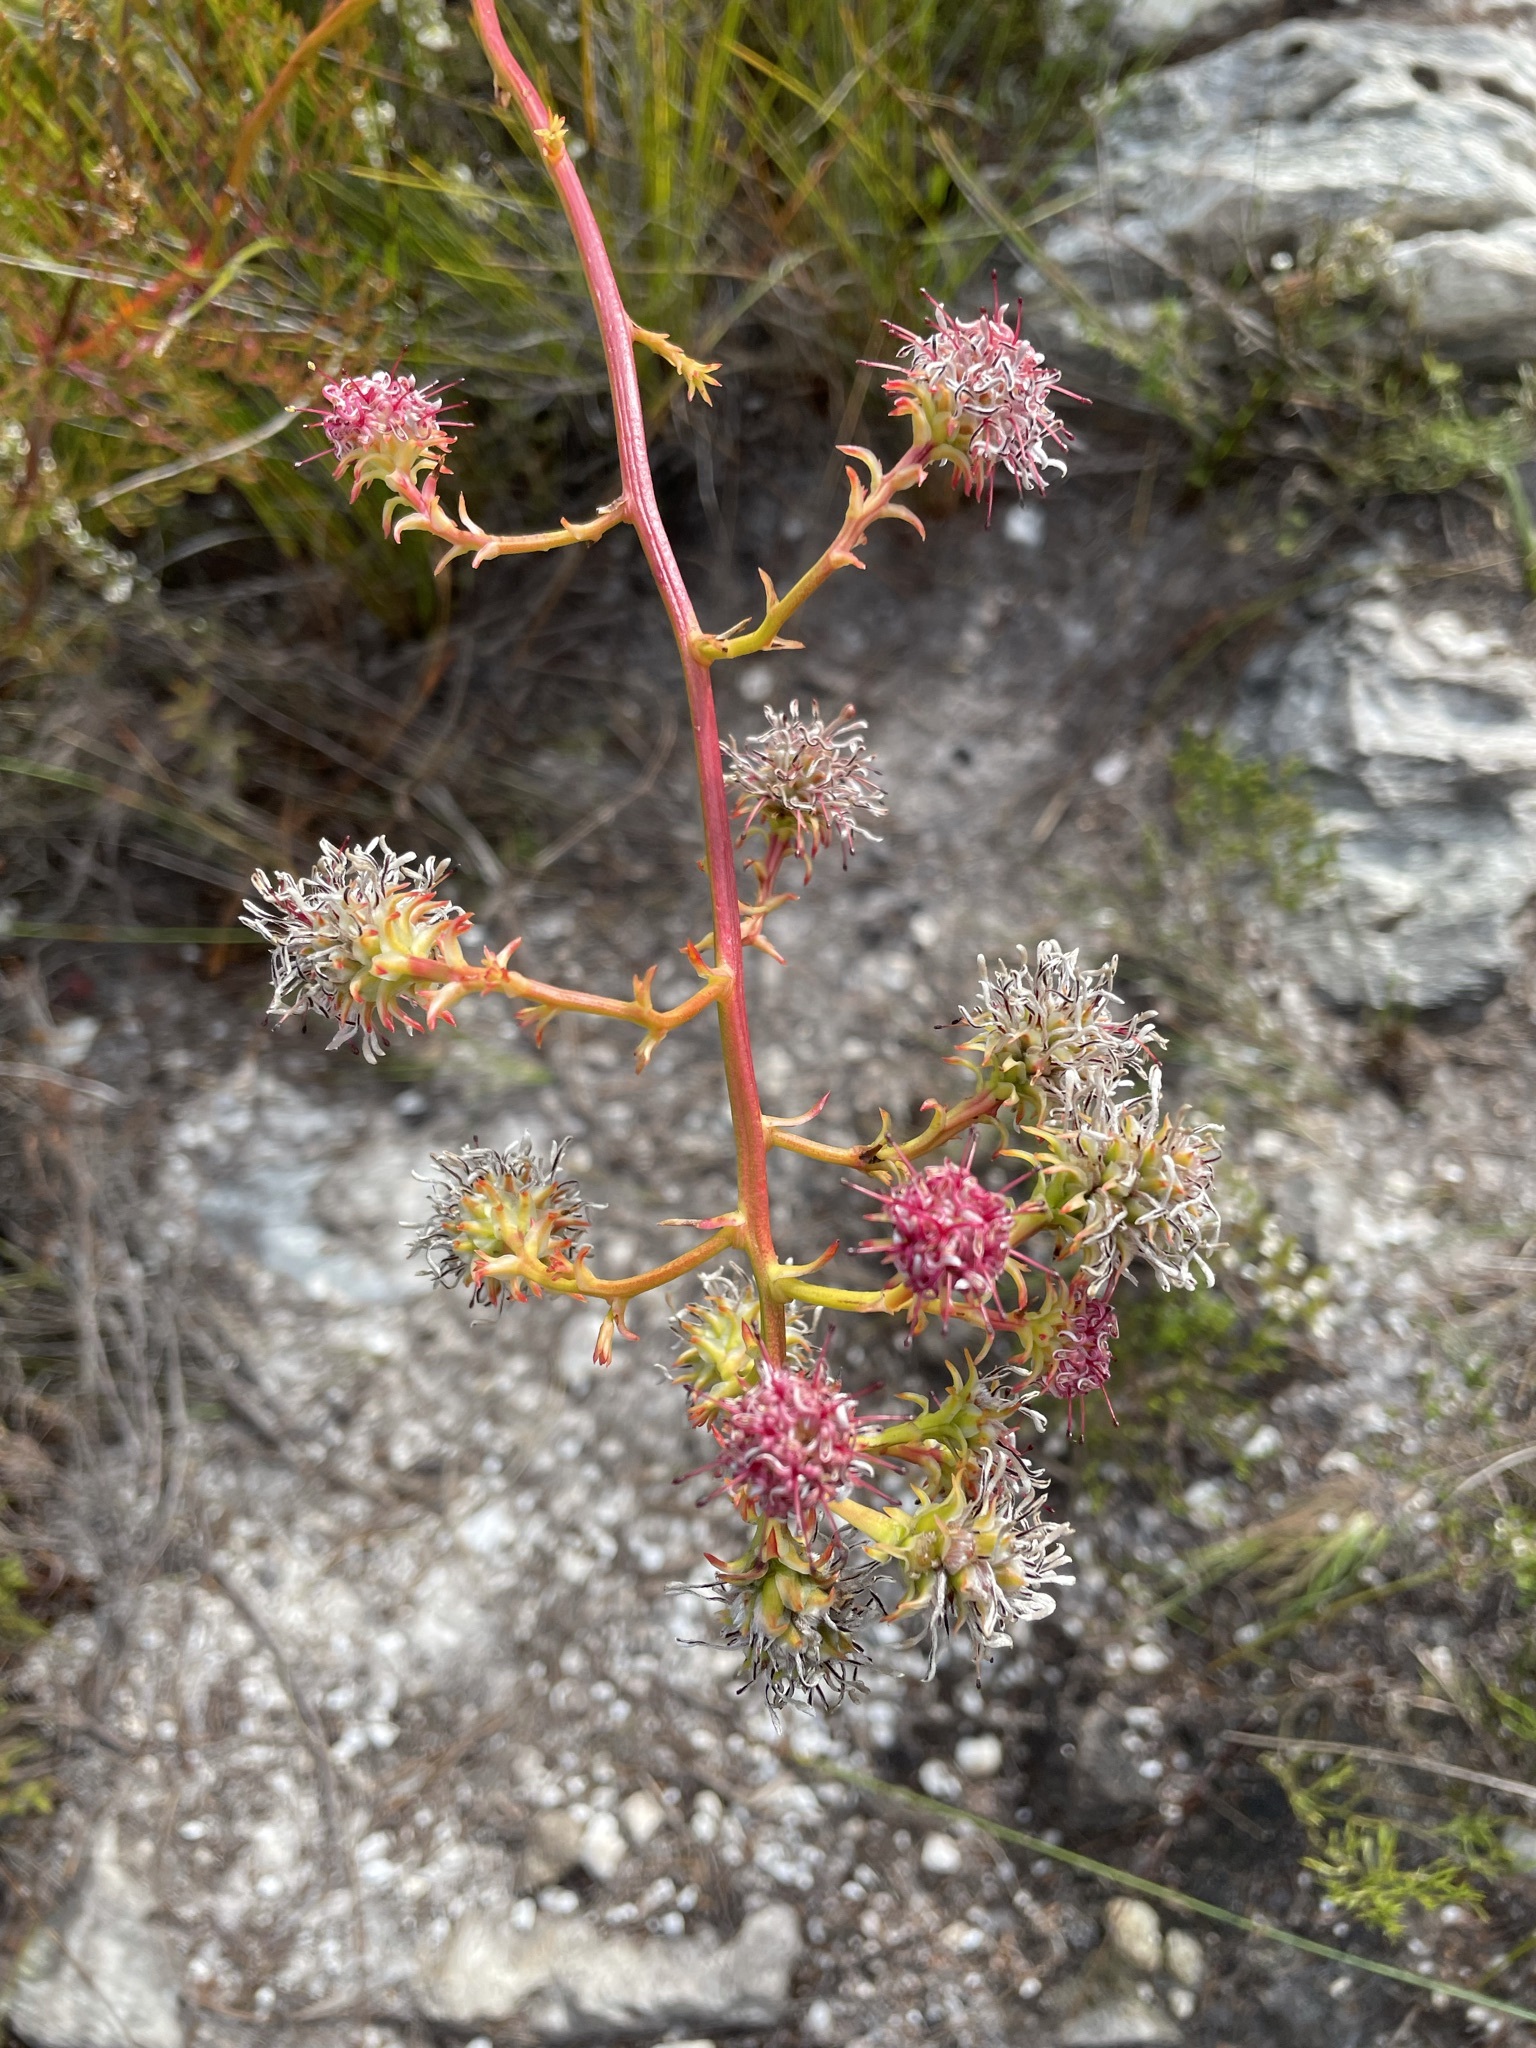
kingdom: Plantae
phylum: Tracheophyta
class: Magnoliopsida
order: Proteales
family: Proteaceae
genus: Serruria
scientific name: Serruria elongata
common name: Long-stalk spiderhead
